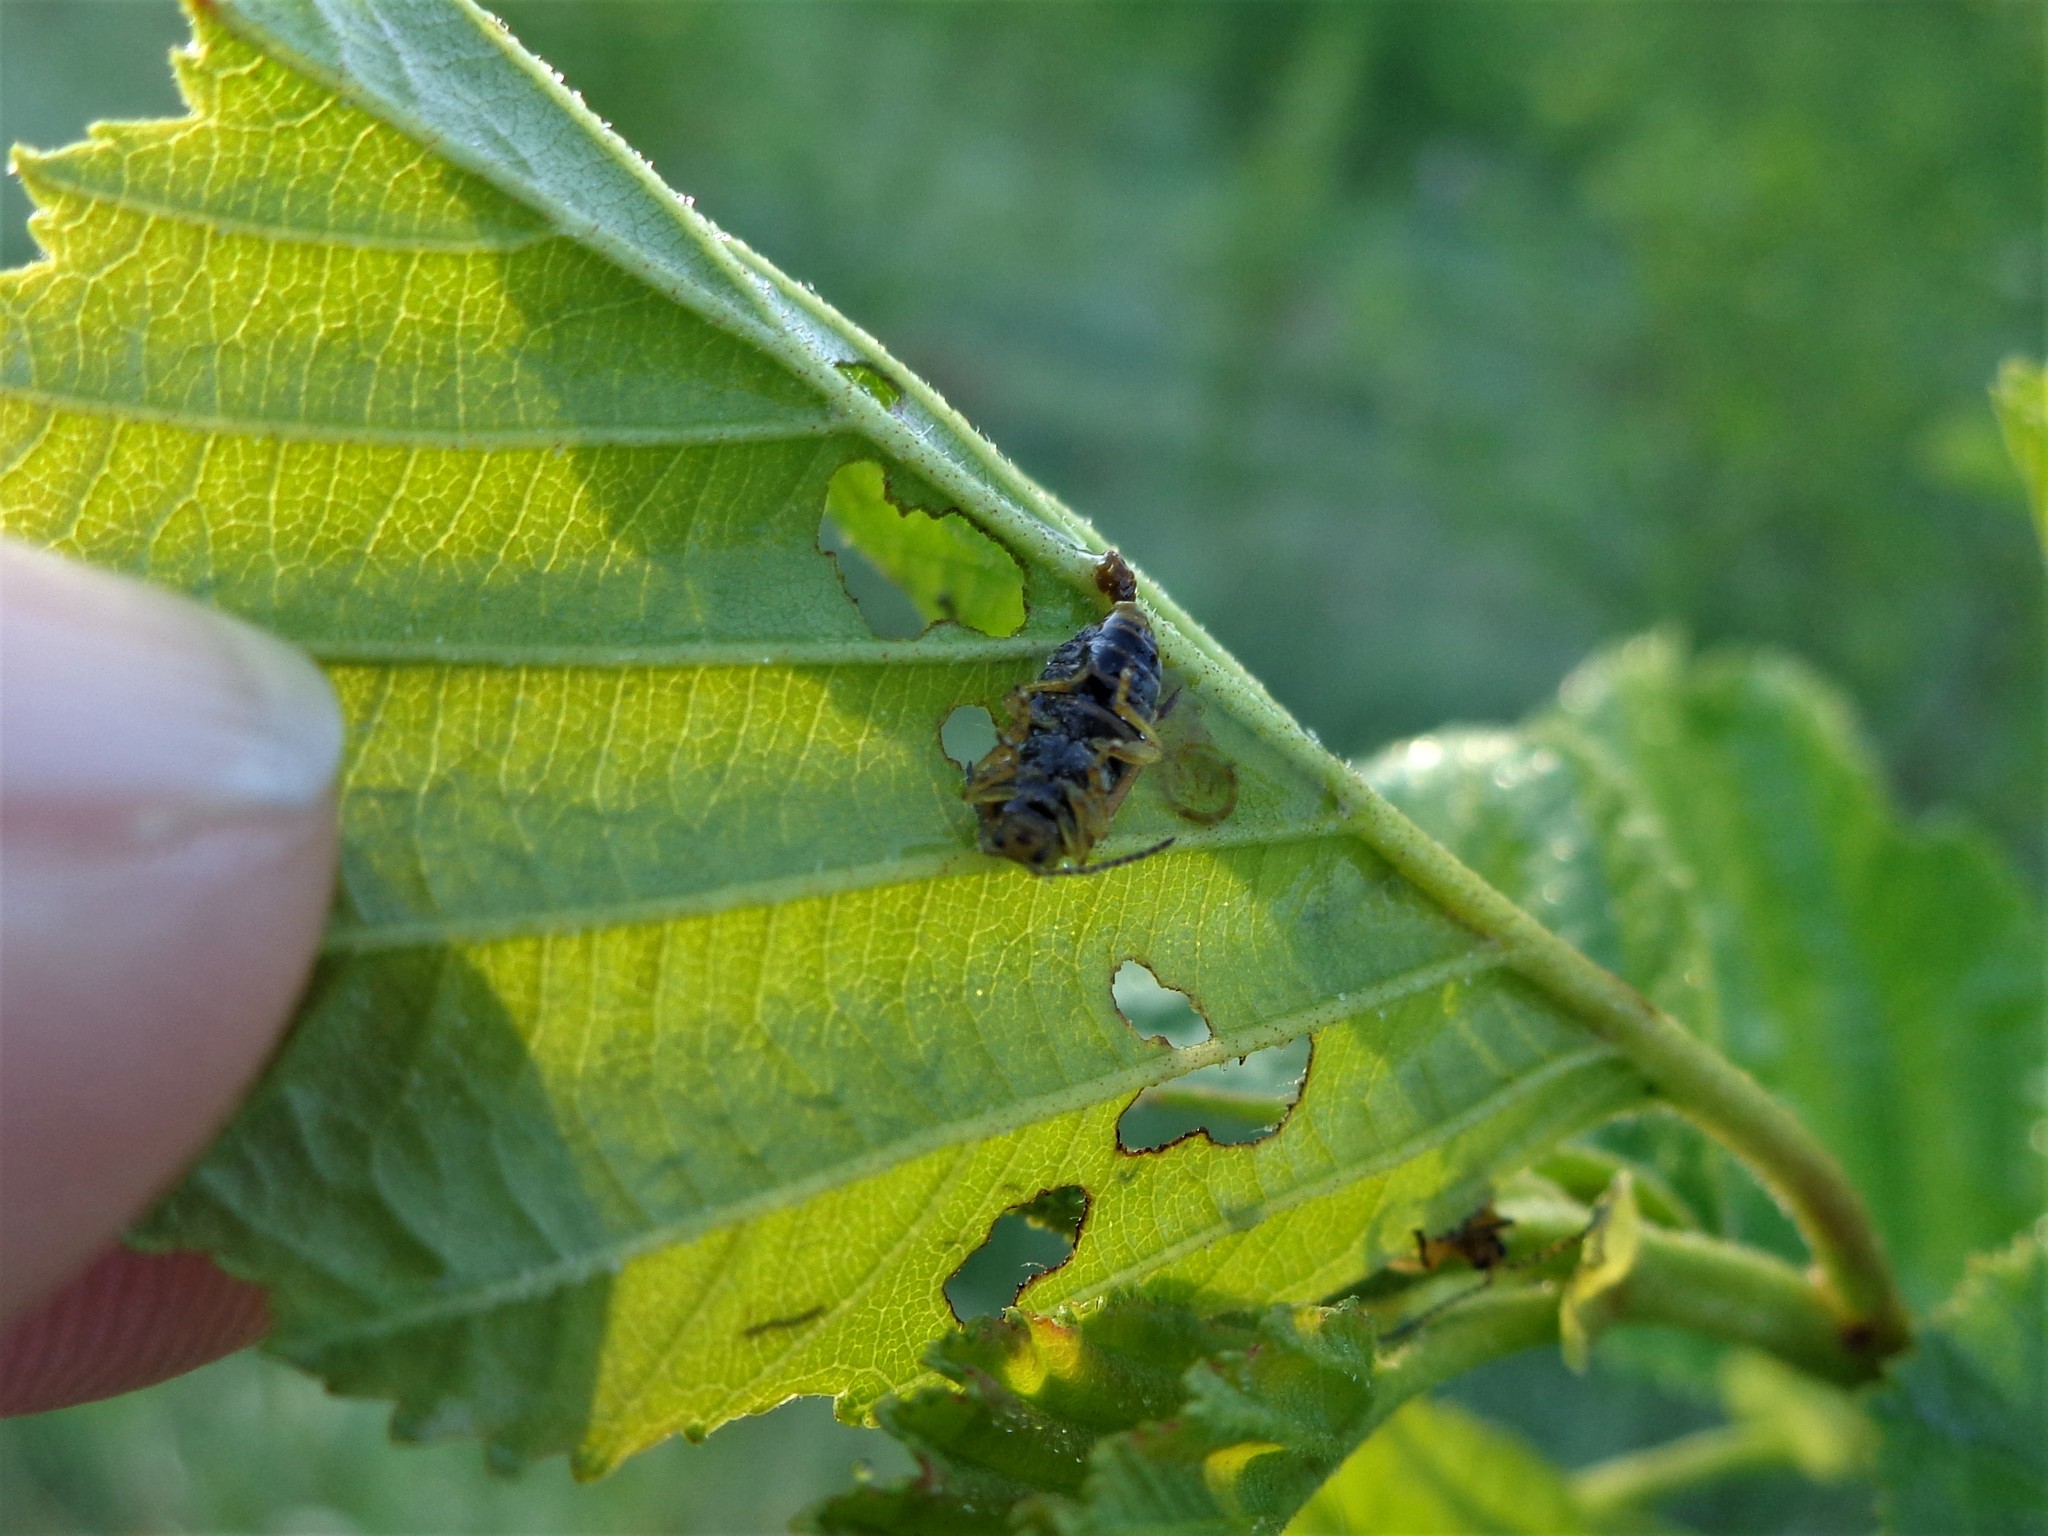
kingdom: Animalia
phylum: Arthropoda
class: Insecta
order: Coleoptera
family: Curculionidae
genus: Phyllobius
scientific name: Phyllobius pyri
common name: Common leaf weevil
